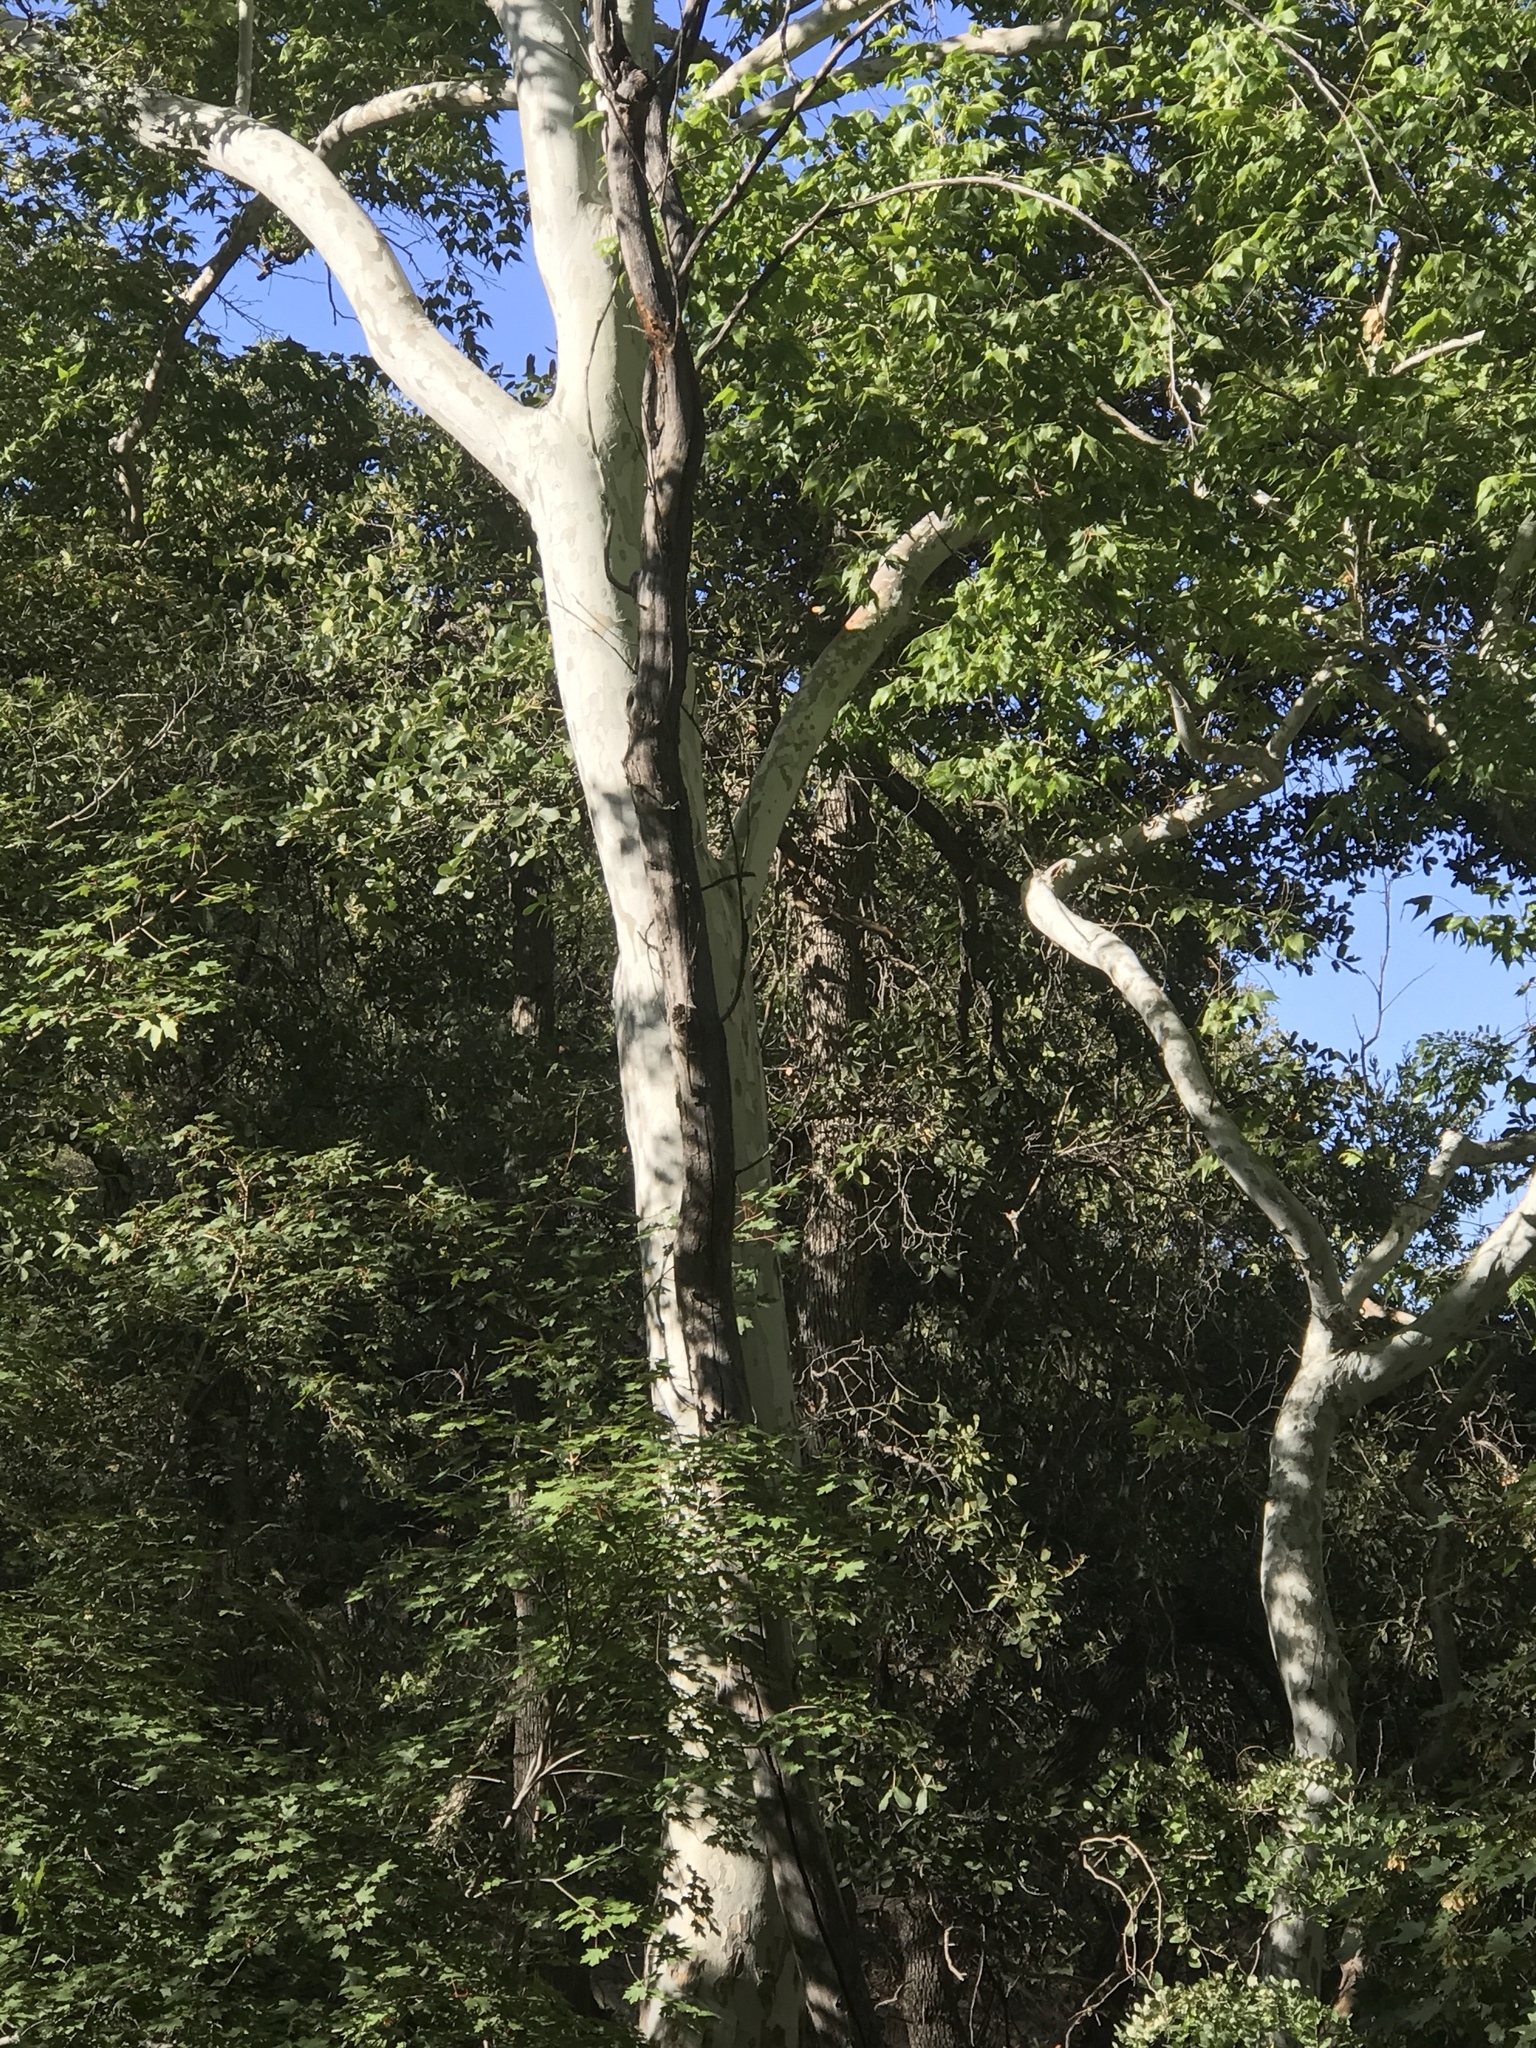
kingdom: Plantae
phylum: Tracheophyta
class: Magnoliopsida
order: Proteales
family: Platanaceae
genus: Platanus
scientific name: Platanus wrightii
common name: Arizona sycamore
